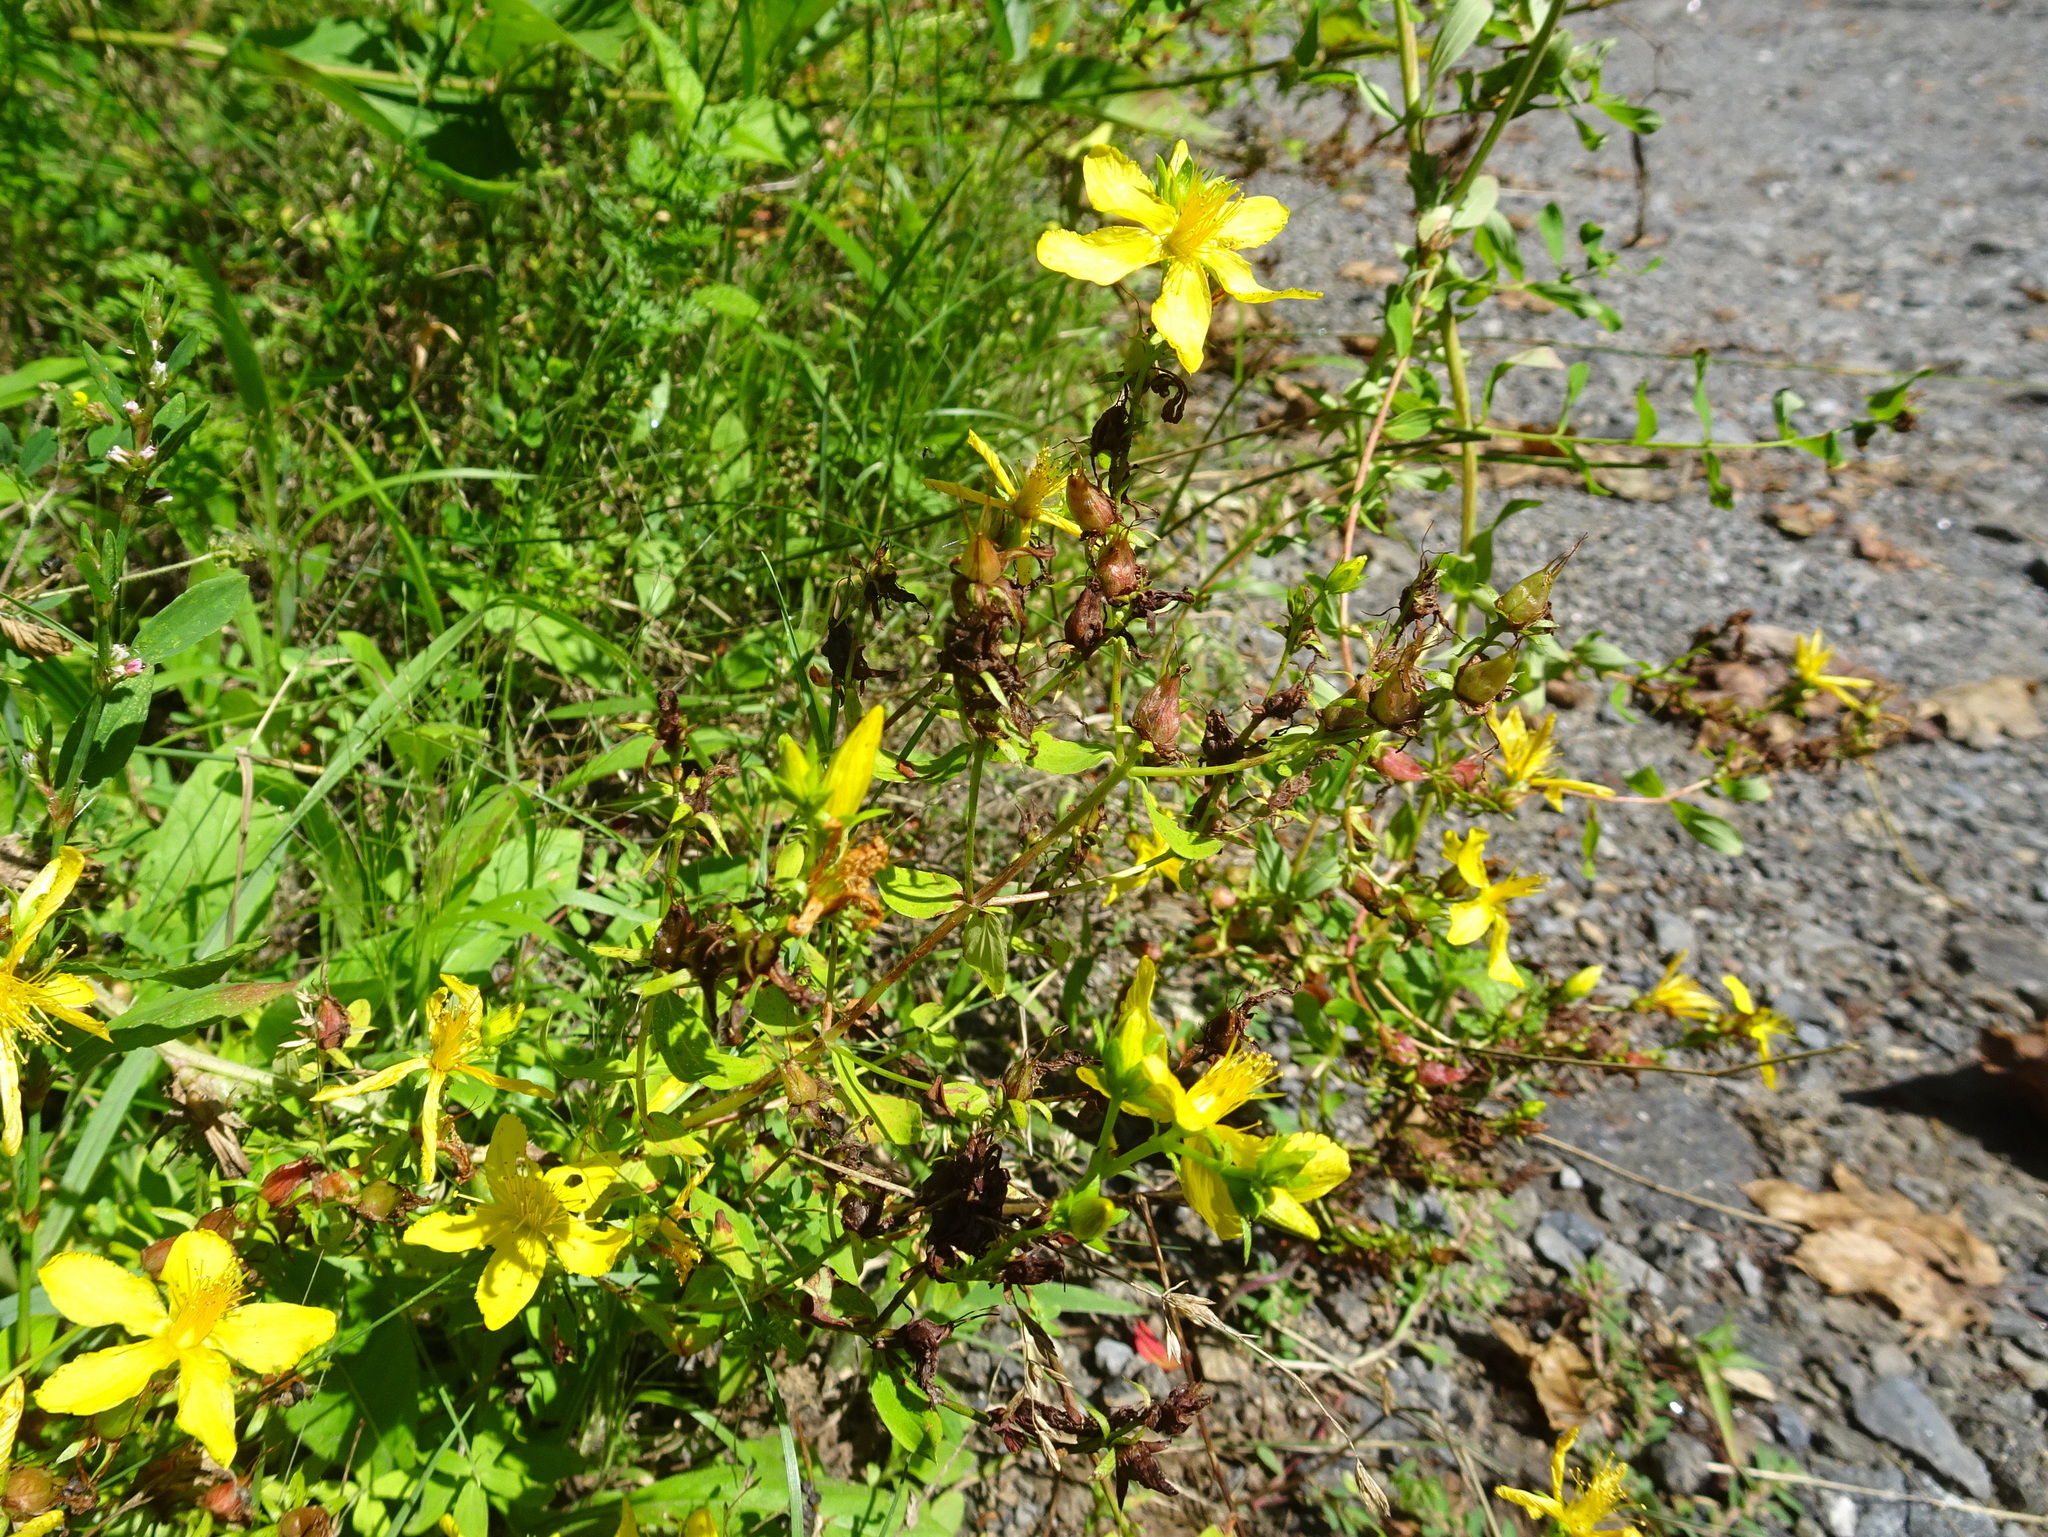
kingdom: Plantae
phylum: Tracheophyta
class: Magnoliopsida
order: Malpighiales
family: Hypericaceae
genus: Hypericum
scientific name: Hypericum perforatum
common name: Common st. johnswort
